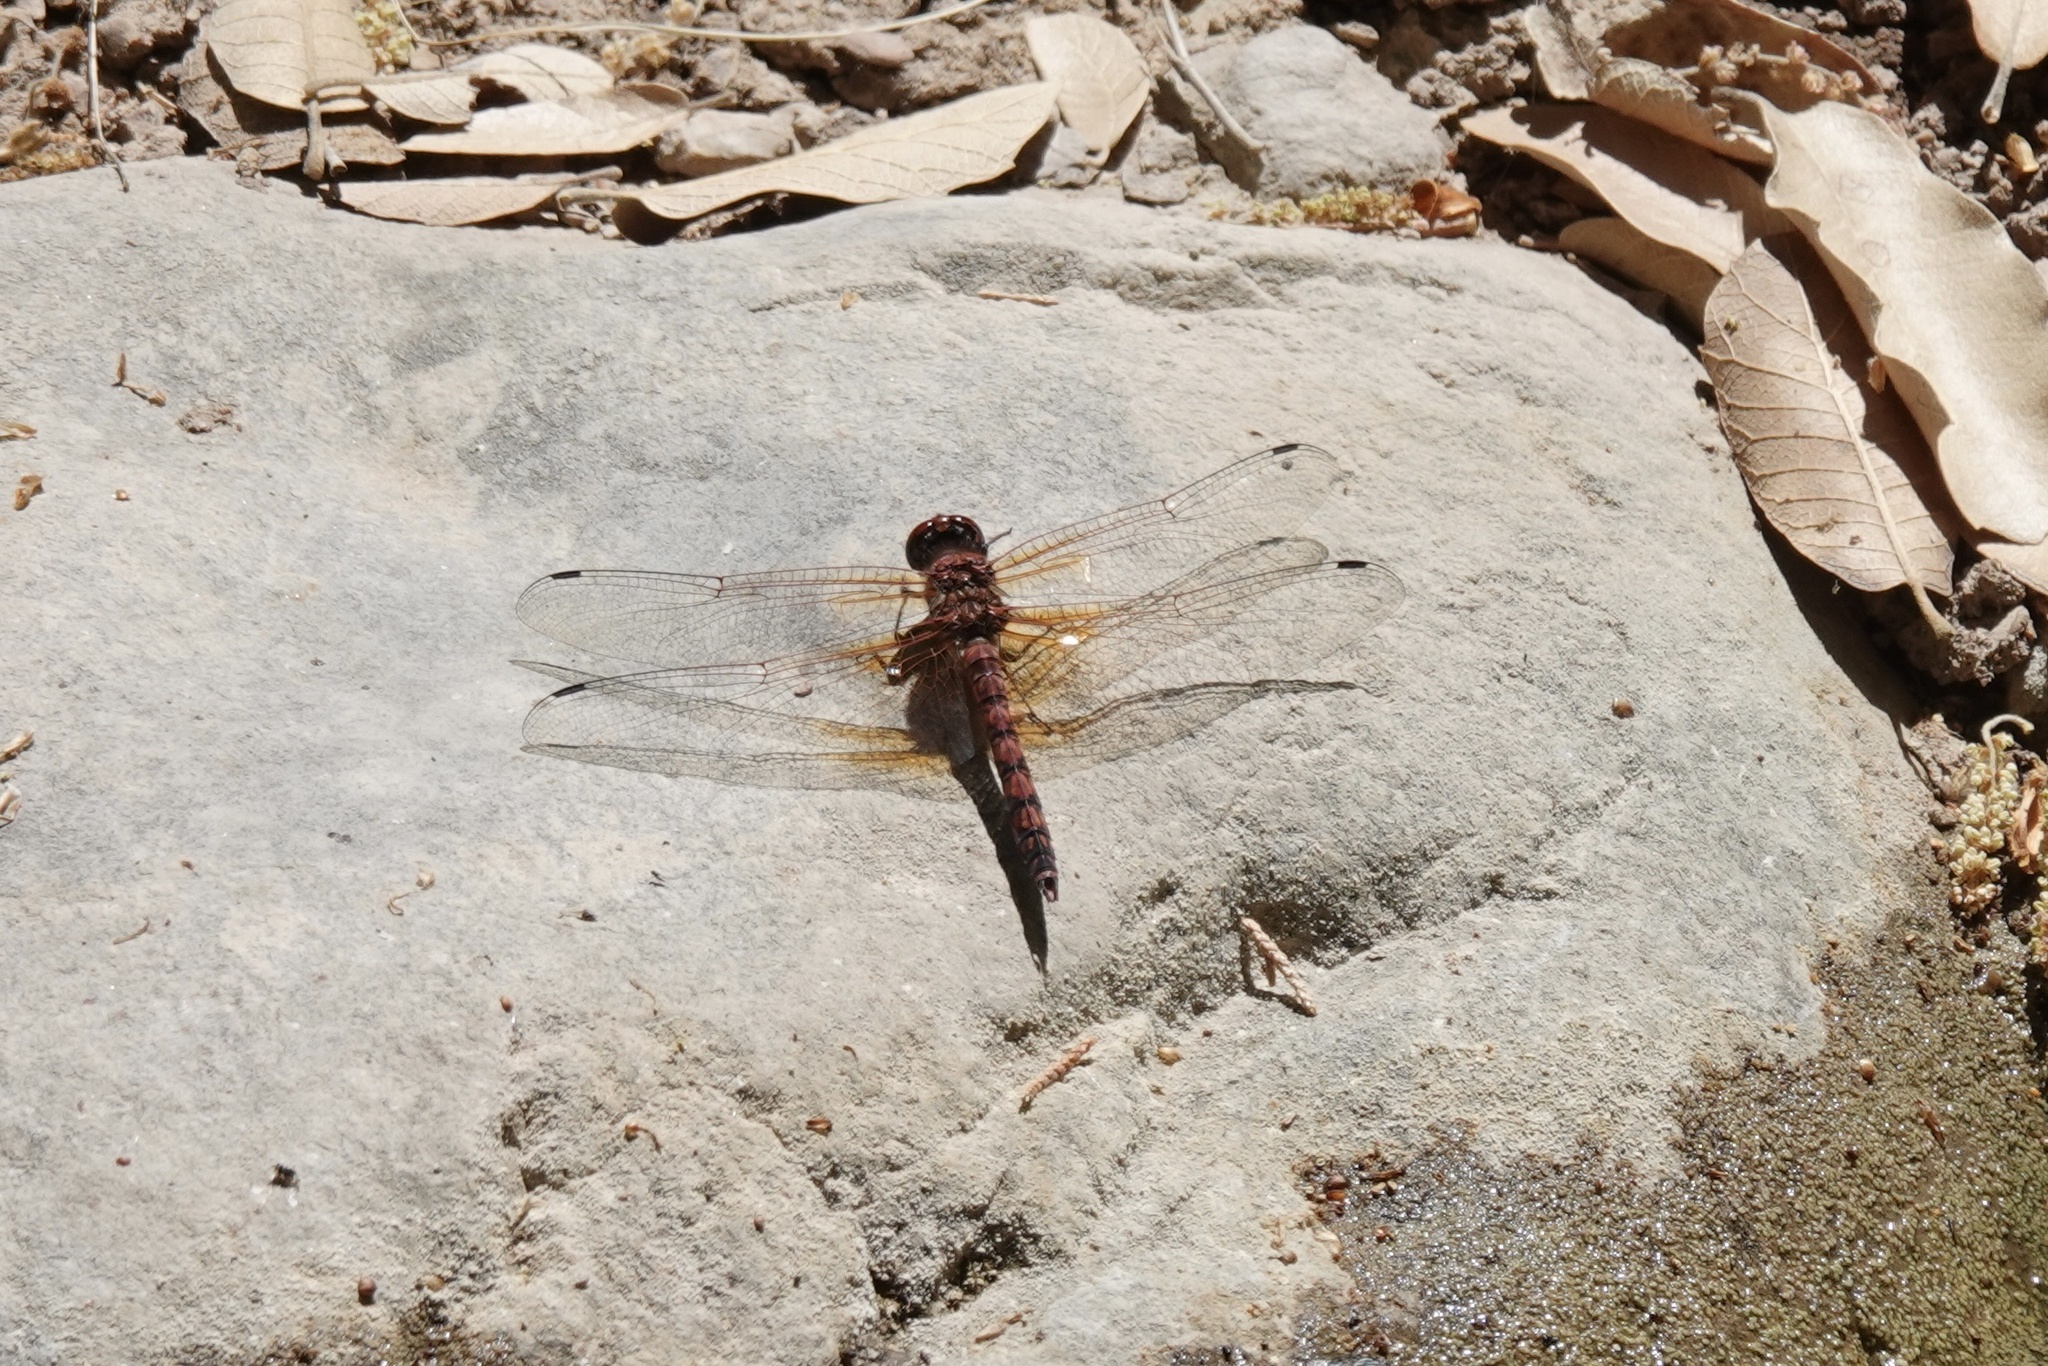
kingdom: Animalia
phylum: Arthropoda
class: Insecta
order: Odonata
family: Libellulidae
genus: Paltothemis
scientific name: Paltothemis lineatipes
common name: Red rock skimmer
